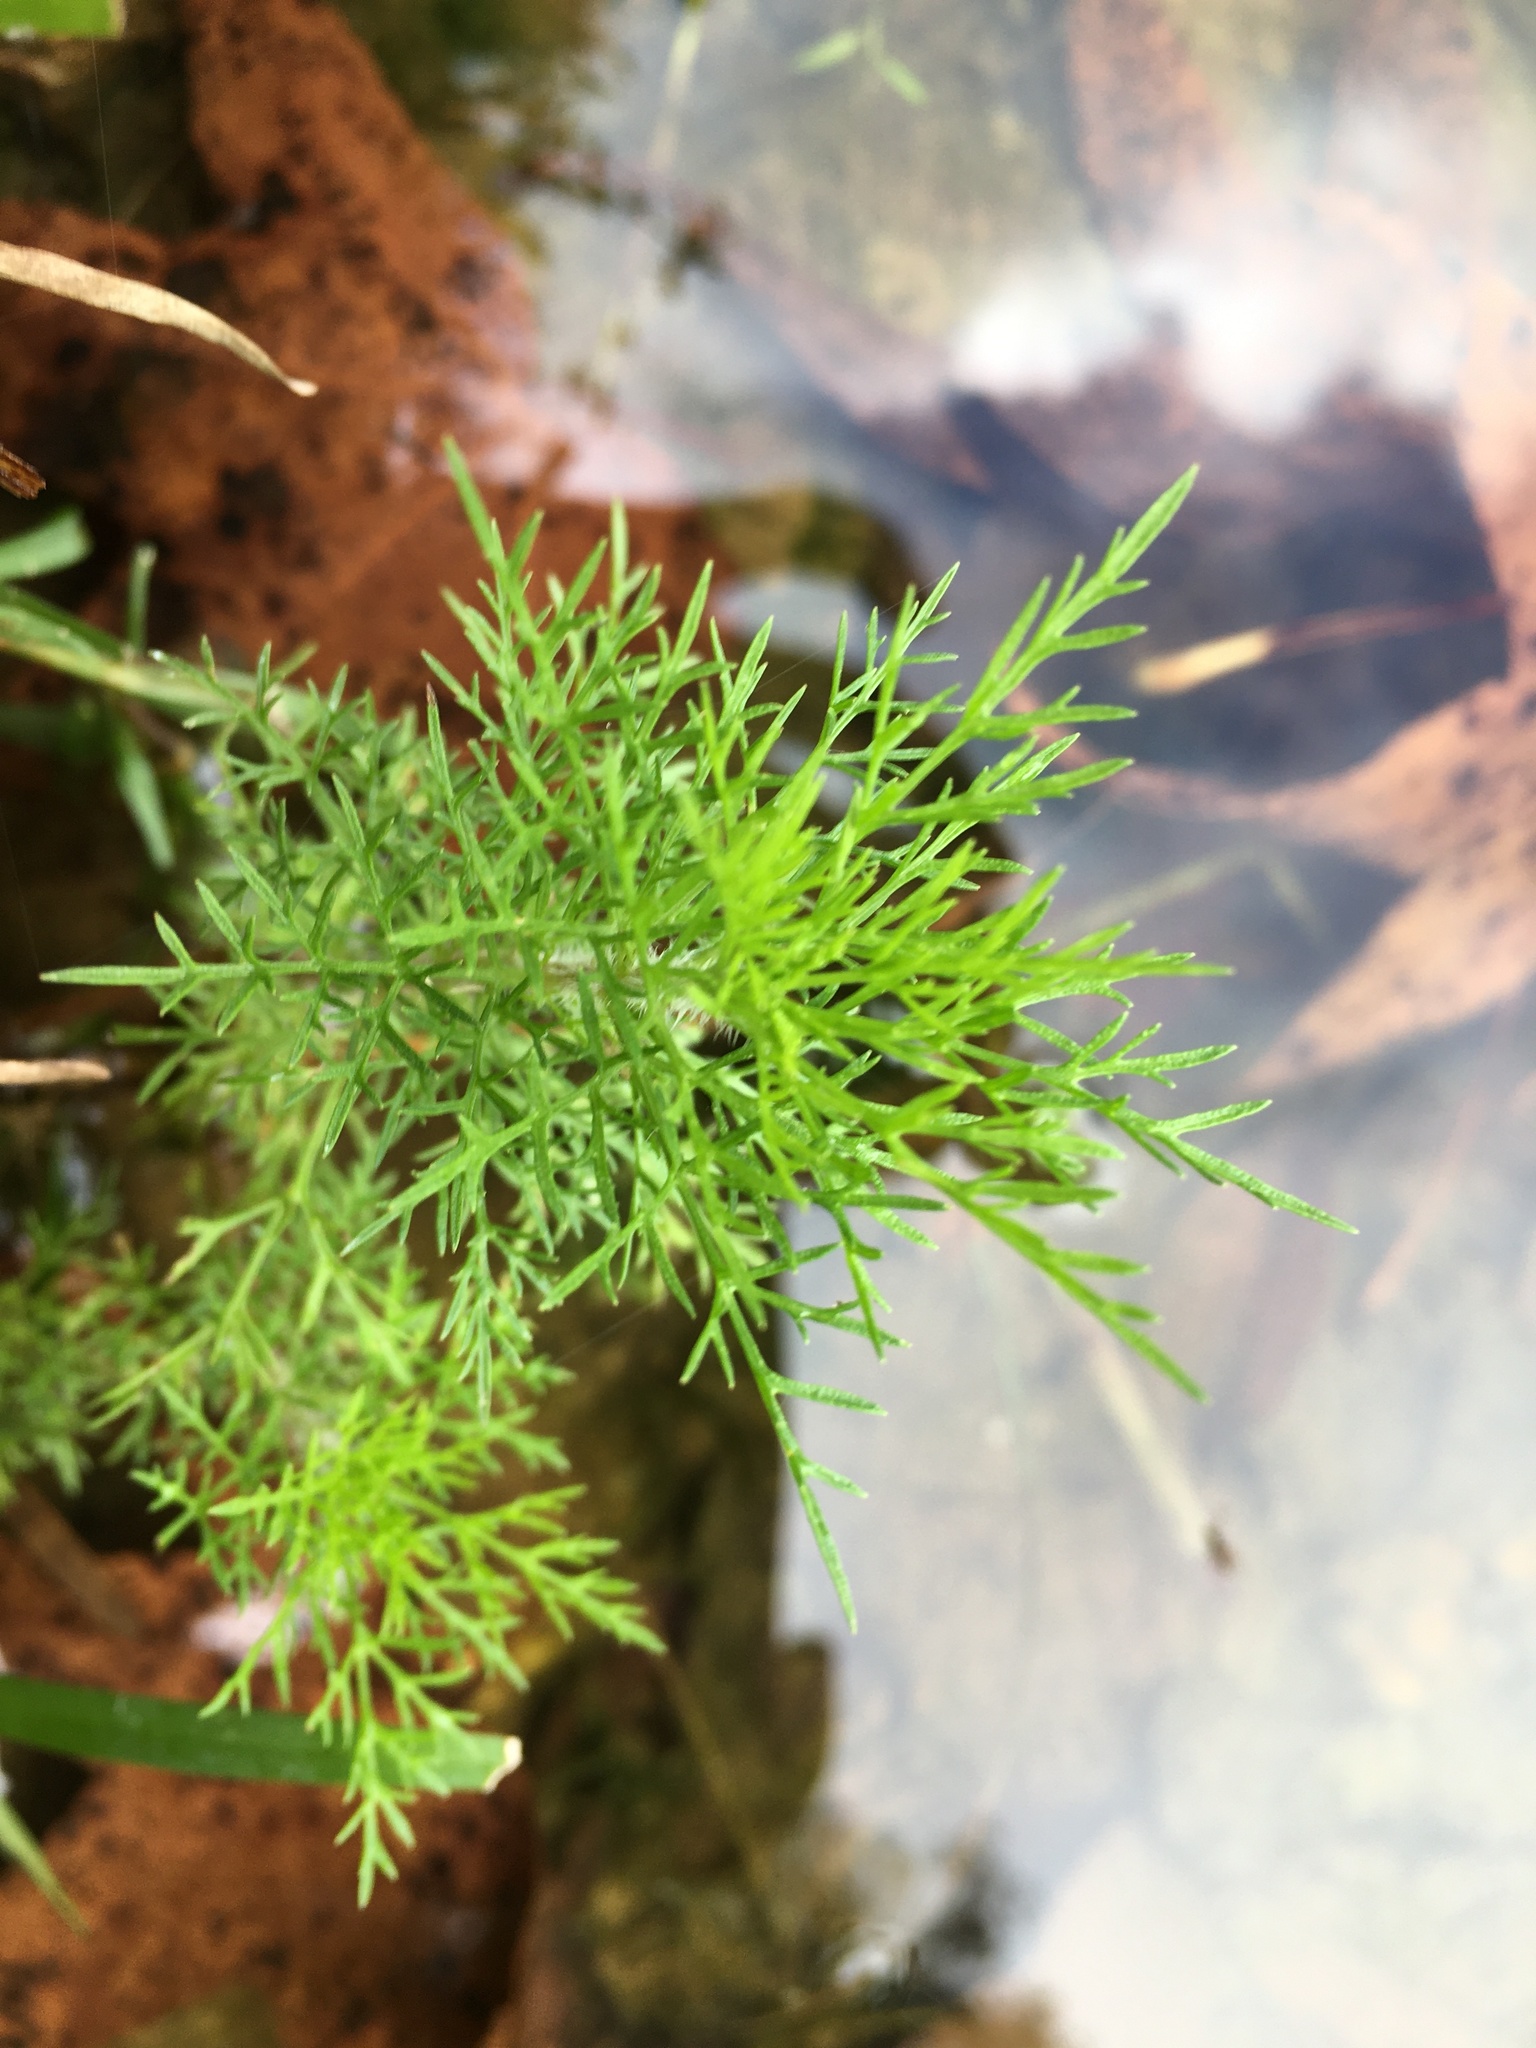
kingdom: Plantae
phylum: Tracheophyta
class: Magnoliopsida
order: Asterales
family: Asteraceae
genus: Eupatorium
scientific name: Eupatorium capillifolium
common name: Dog-fennel
